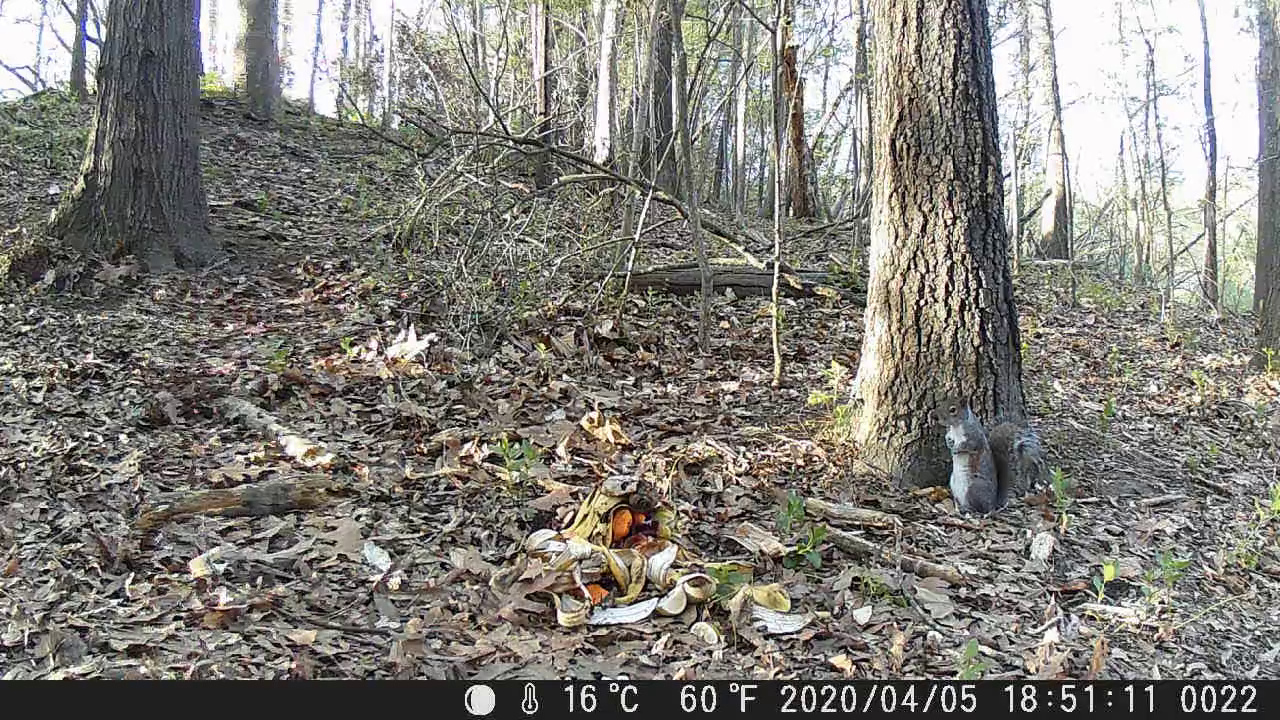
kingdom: Animalia
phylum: Chordata
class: Mammalia
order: Rodentia
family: Sciuridae
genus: Sciurus
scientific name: Sciurus carolinensis
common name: Eastern gray squirrel
